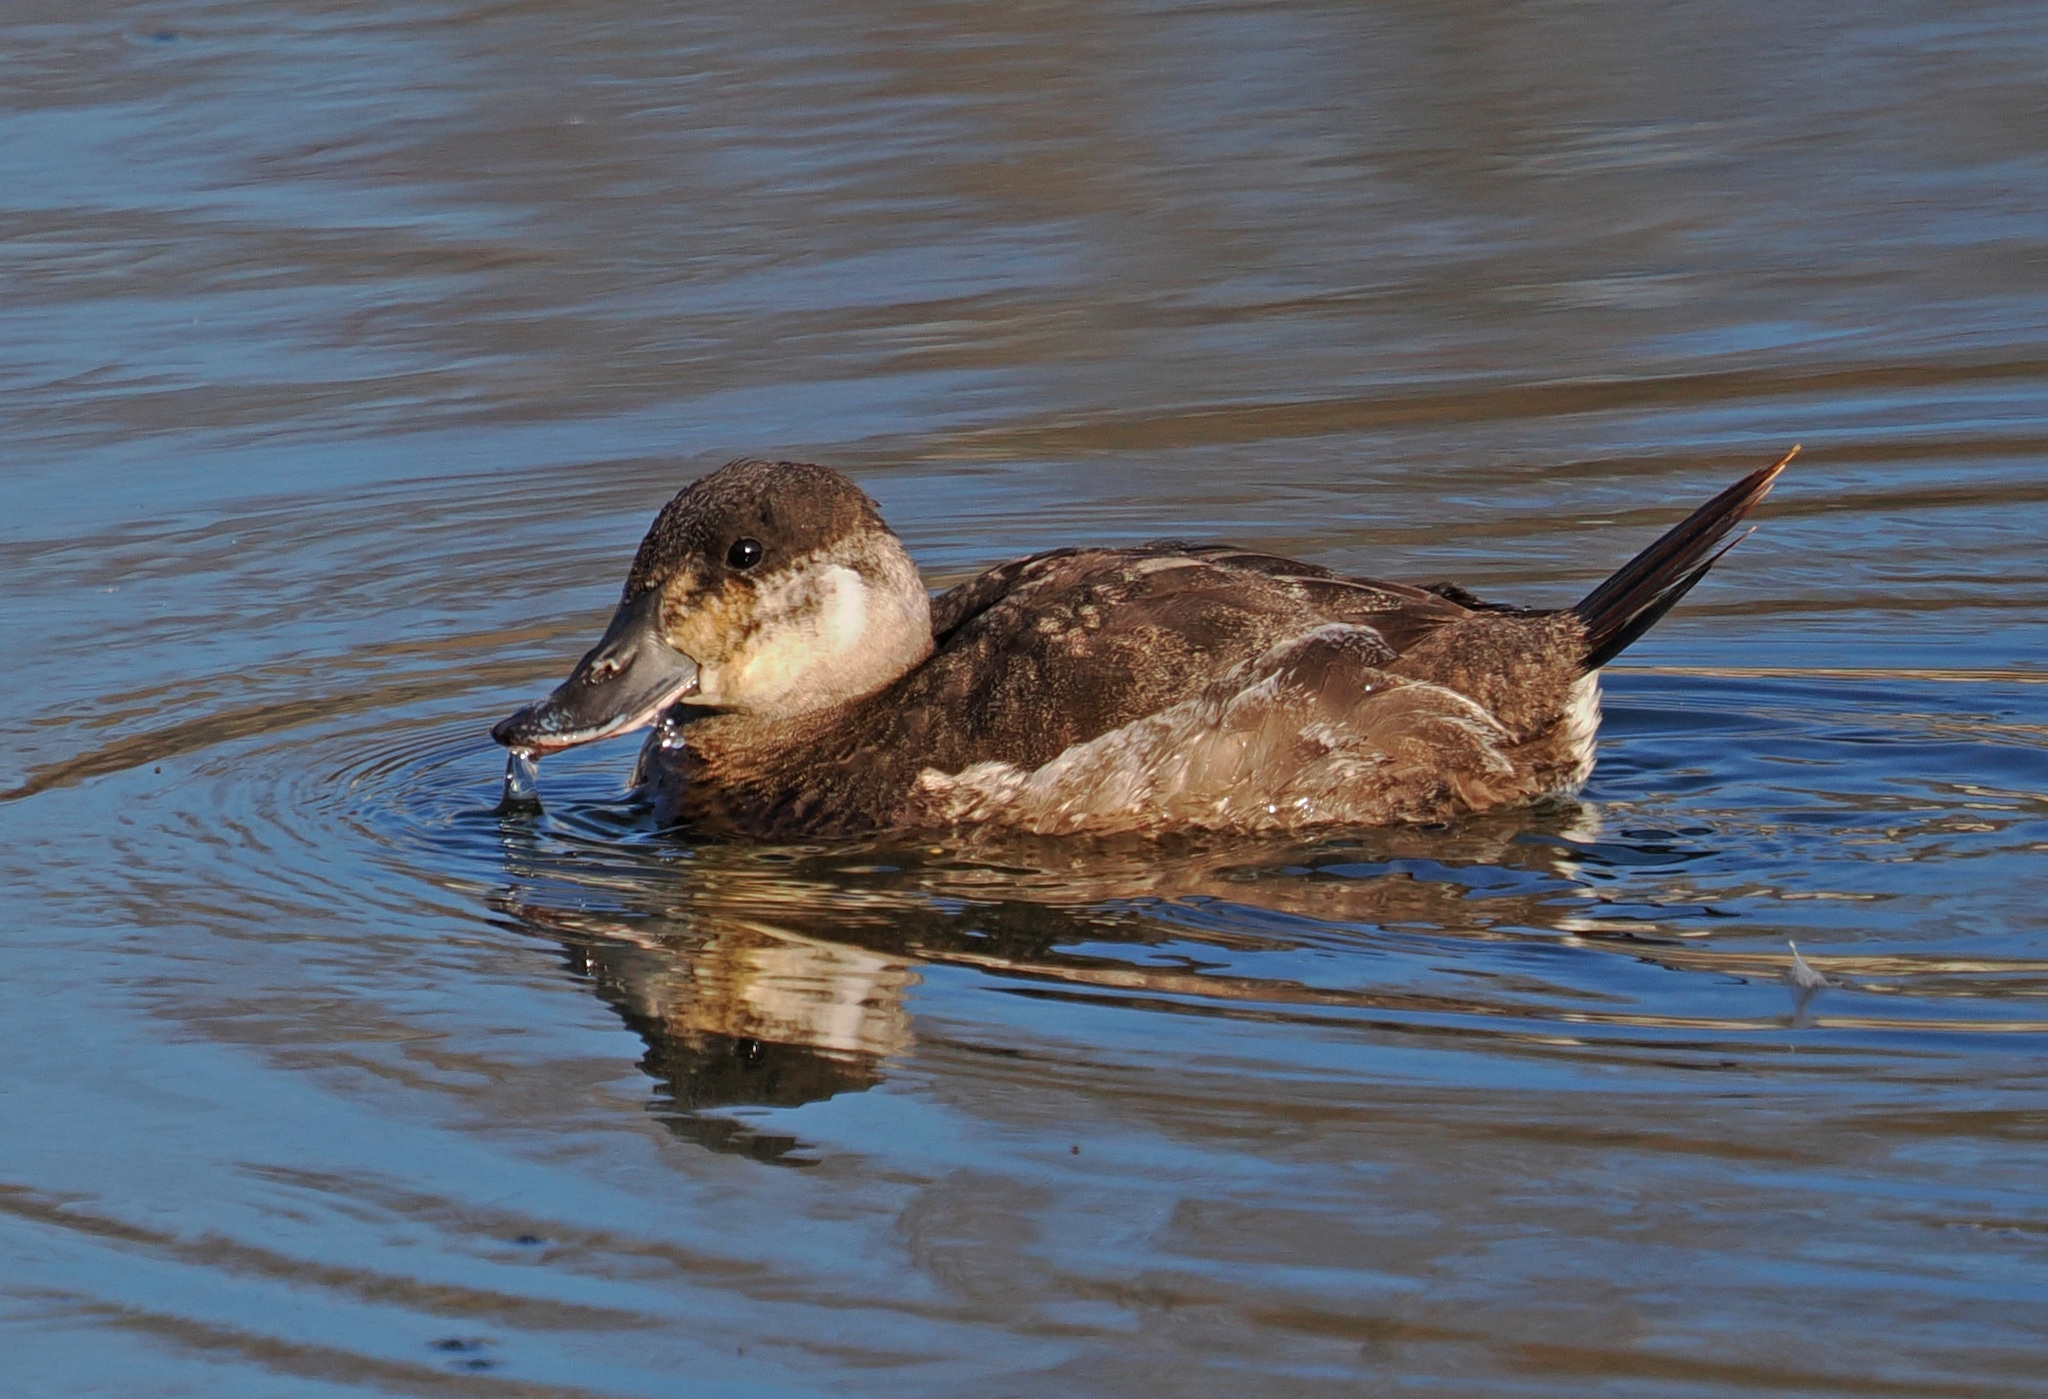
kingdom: Animalia
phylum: Chordata
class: Aves
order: Anseriformes
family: Anatidae
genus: Oxyura
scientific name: Oxyura jamaicensis
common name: Ruddy duck
